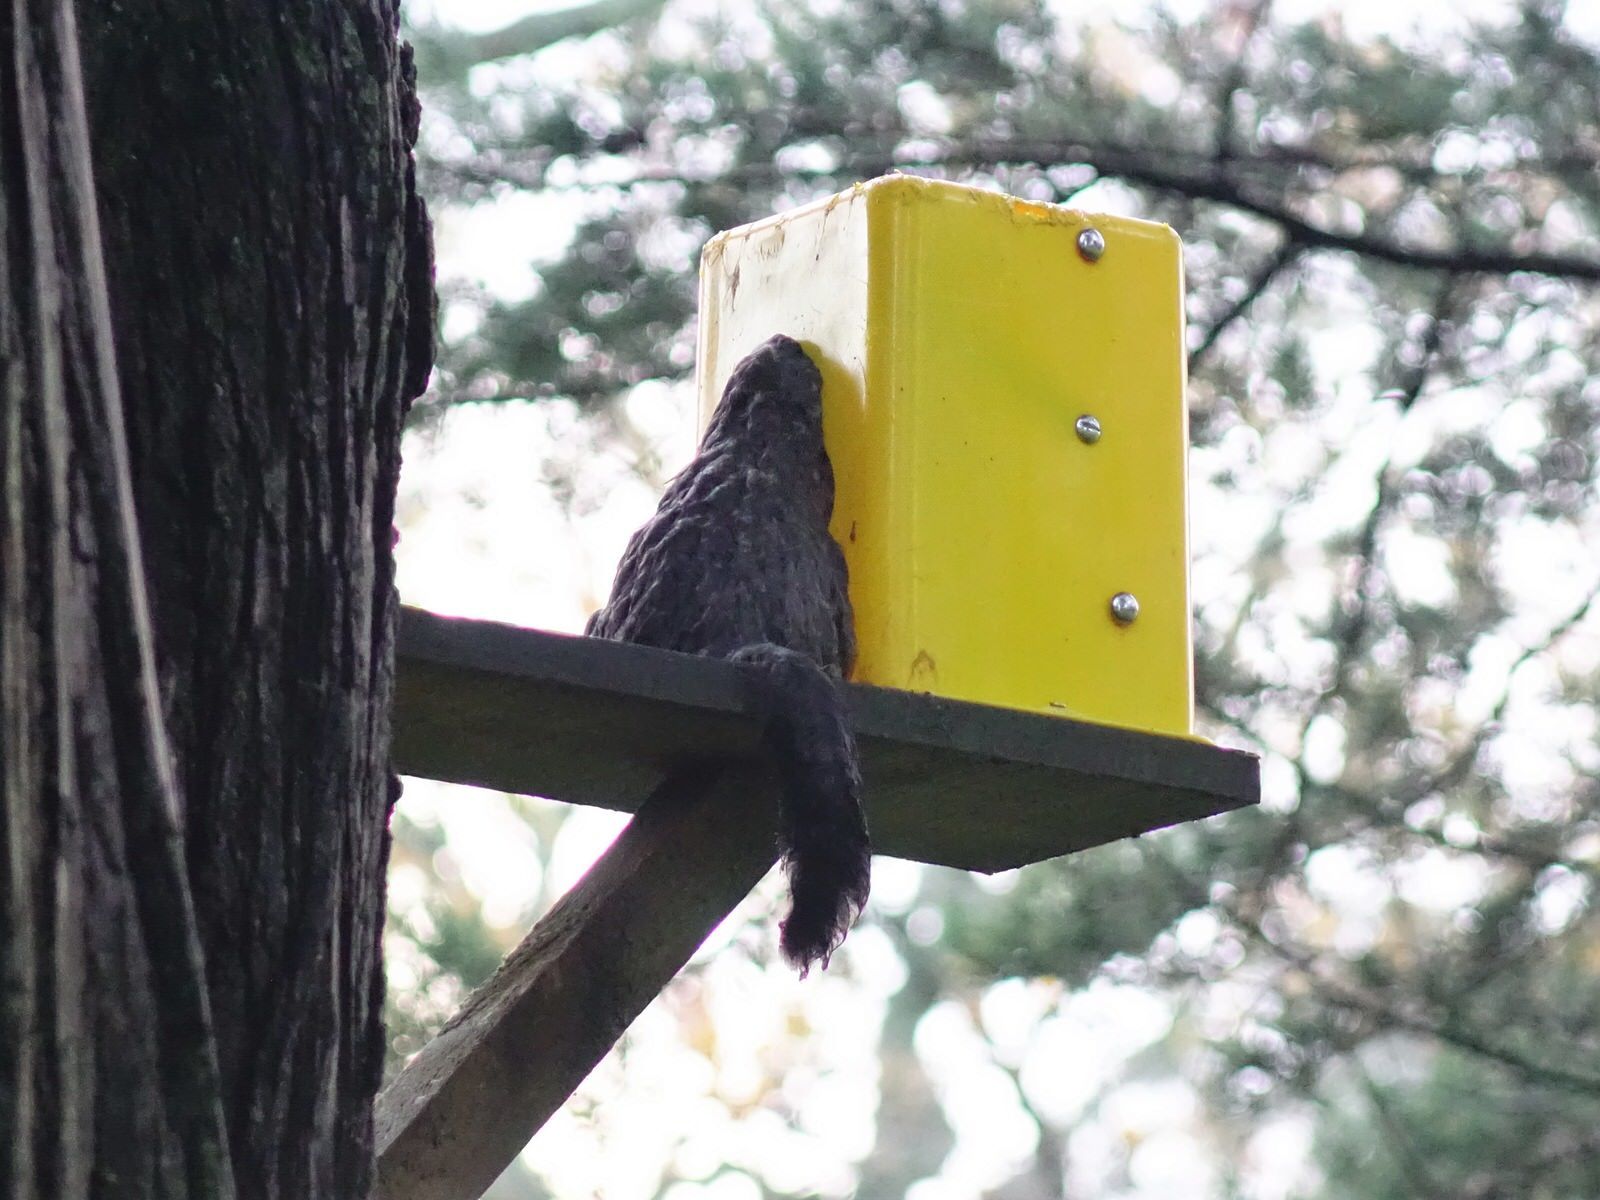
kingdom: Animalia
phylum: Chordata
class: Mammalia
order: Diprotodontia
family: Phalangeridae
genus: Trichosurus
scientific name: Trichosurus vulpecula
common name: Common brushtail
